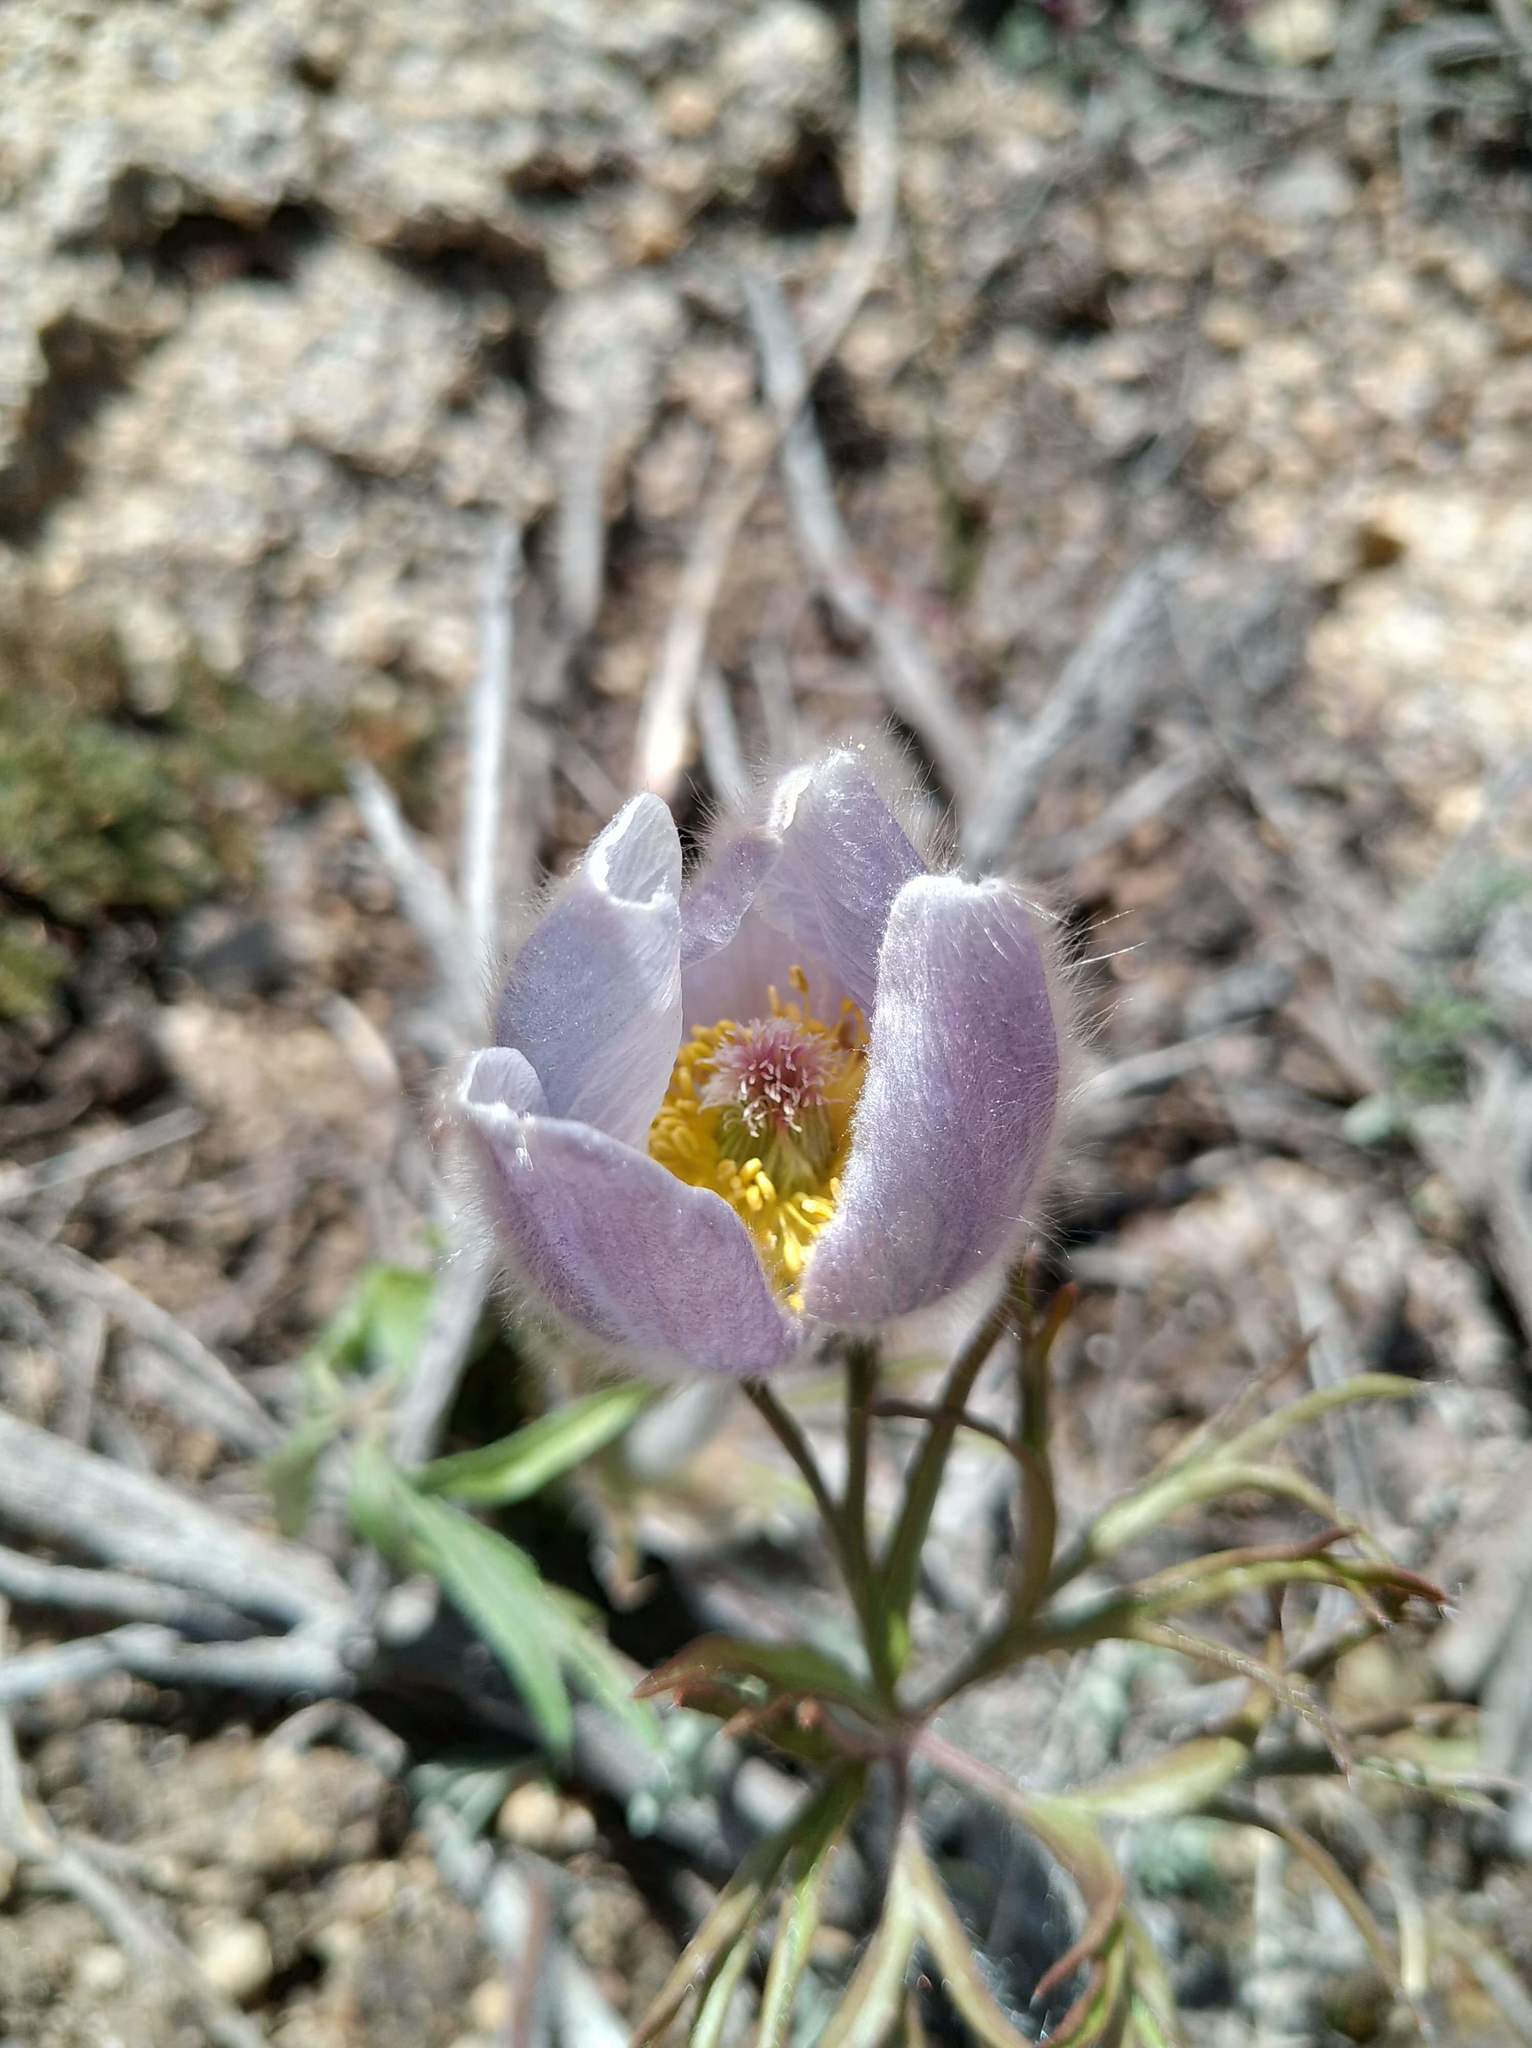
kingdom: Plantae
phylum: Tracheophyta
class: Magnoliopsida
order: Ranunculales
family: Ranunculaceae
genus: Pulsatilla
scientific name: Pulsatilla nuttalliana
